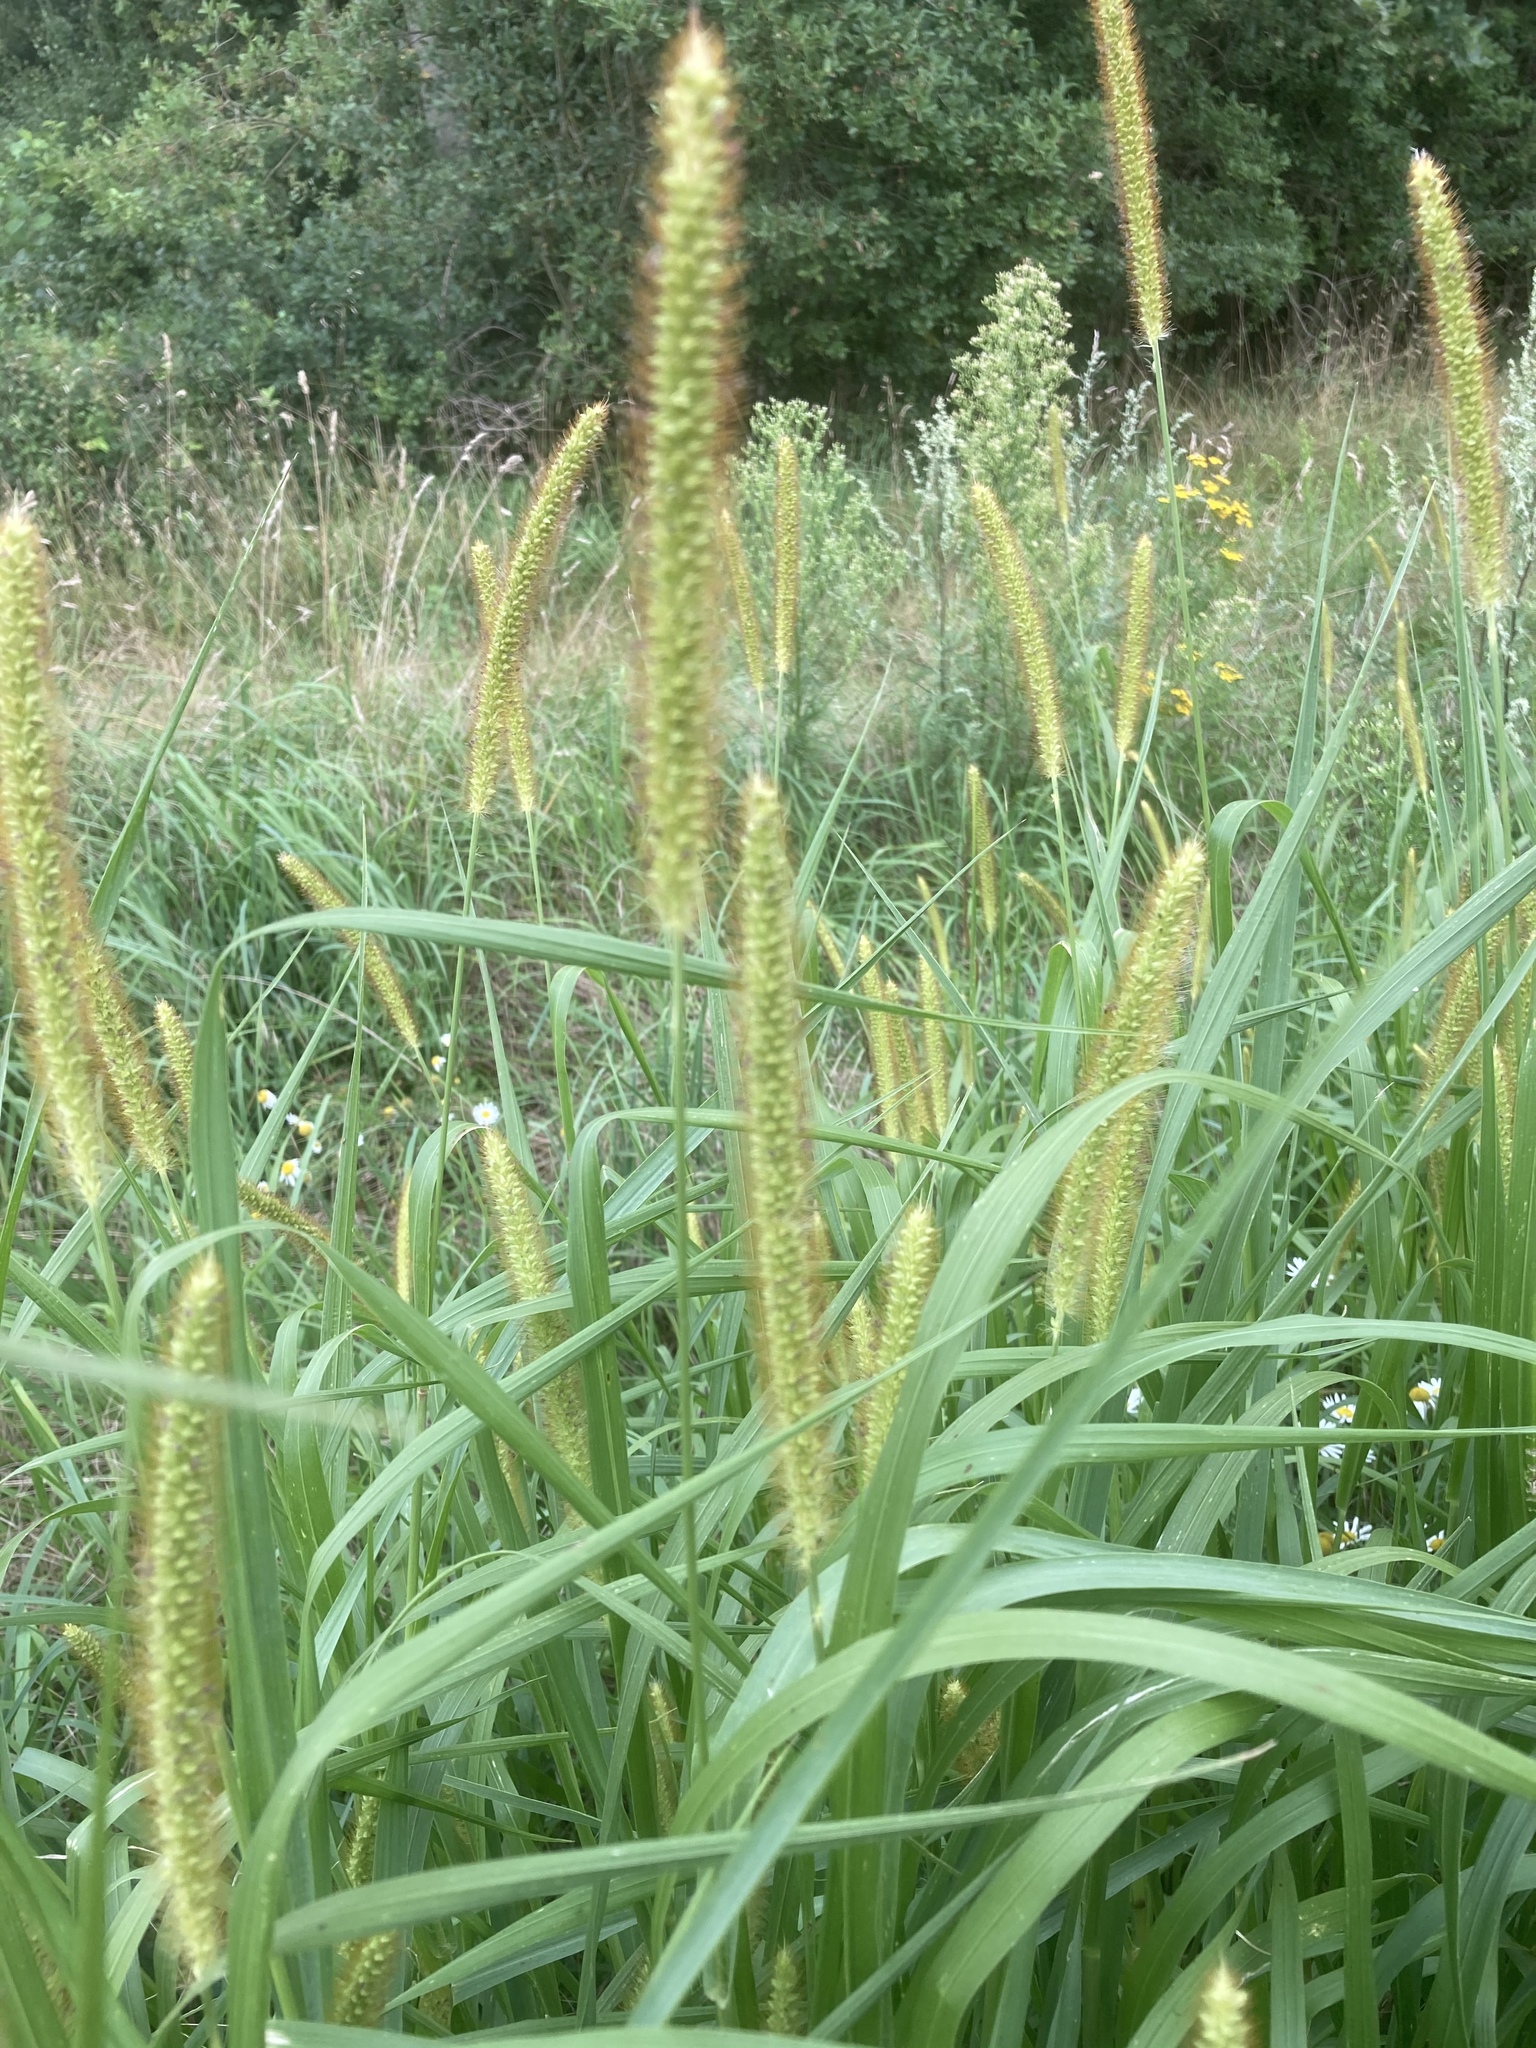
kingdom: Plantae
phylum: Tracheophyta
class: Liliopsida
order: Poales
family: Poaceae
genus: Setaria
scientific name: Setaria pumila
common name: Yellow bristle-grass
